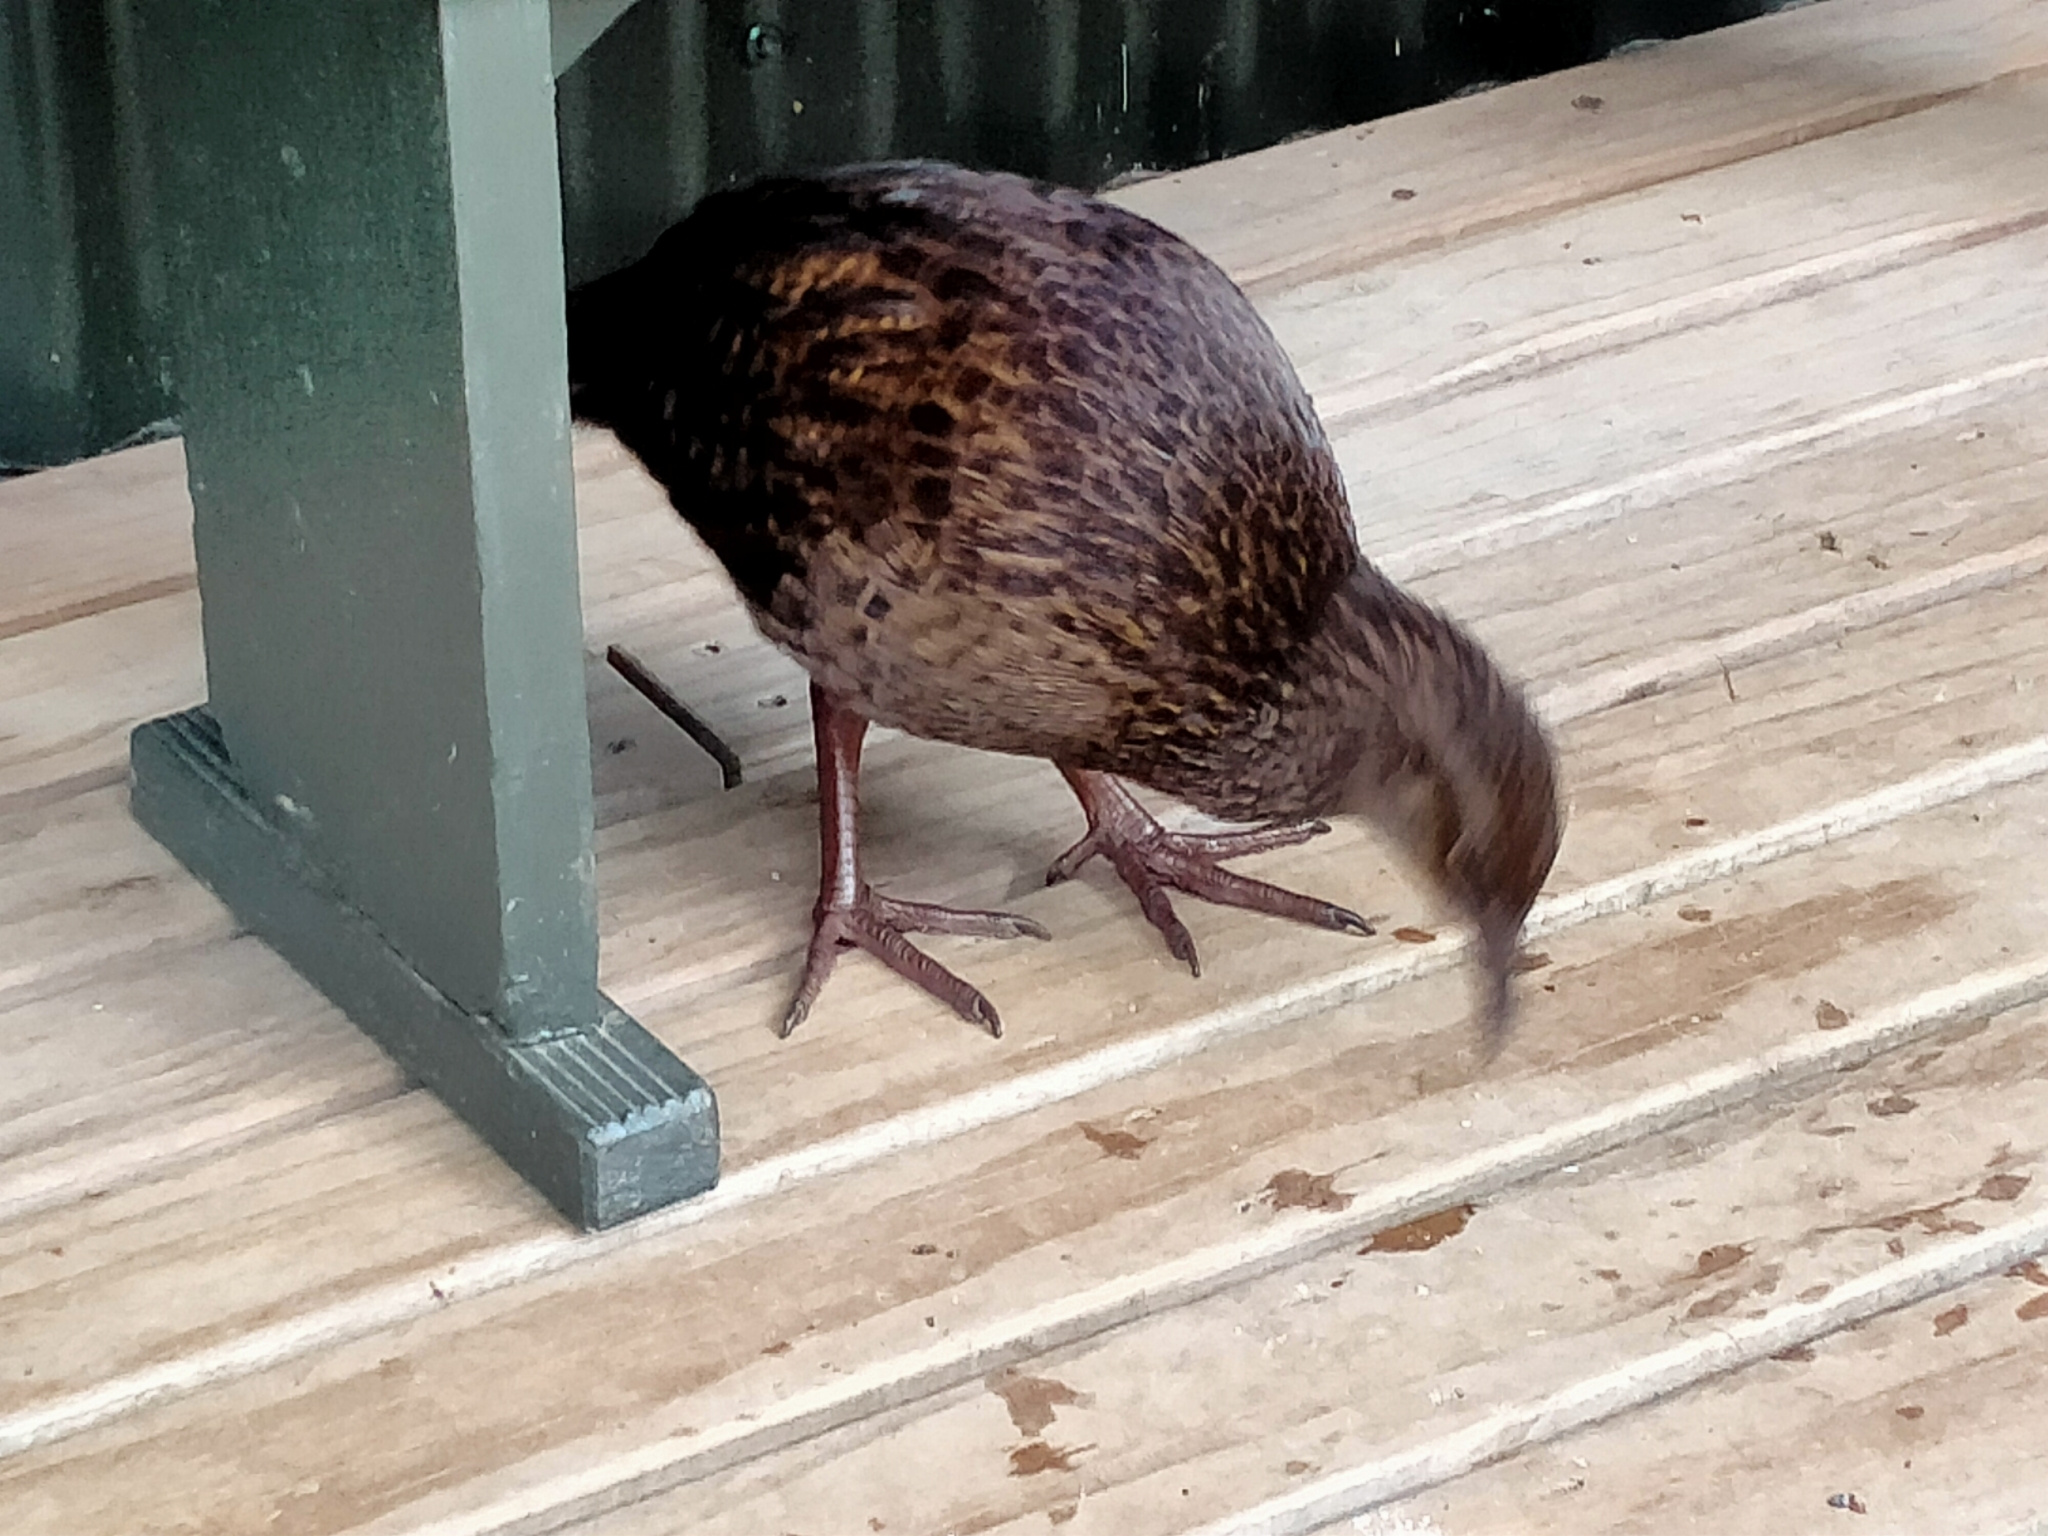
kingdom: Animalia
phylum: Chordata
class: Aves
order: Gruiformes
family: Rallidae
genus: Gallirallus
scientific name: Gallirallus australis
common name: Weka
